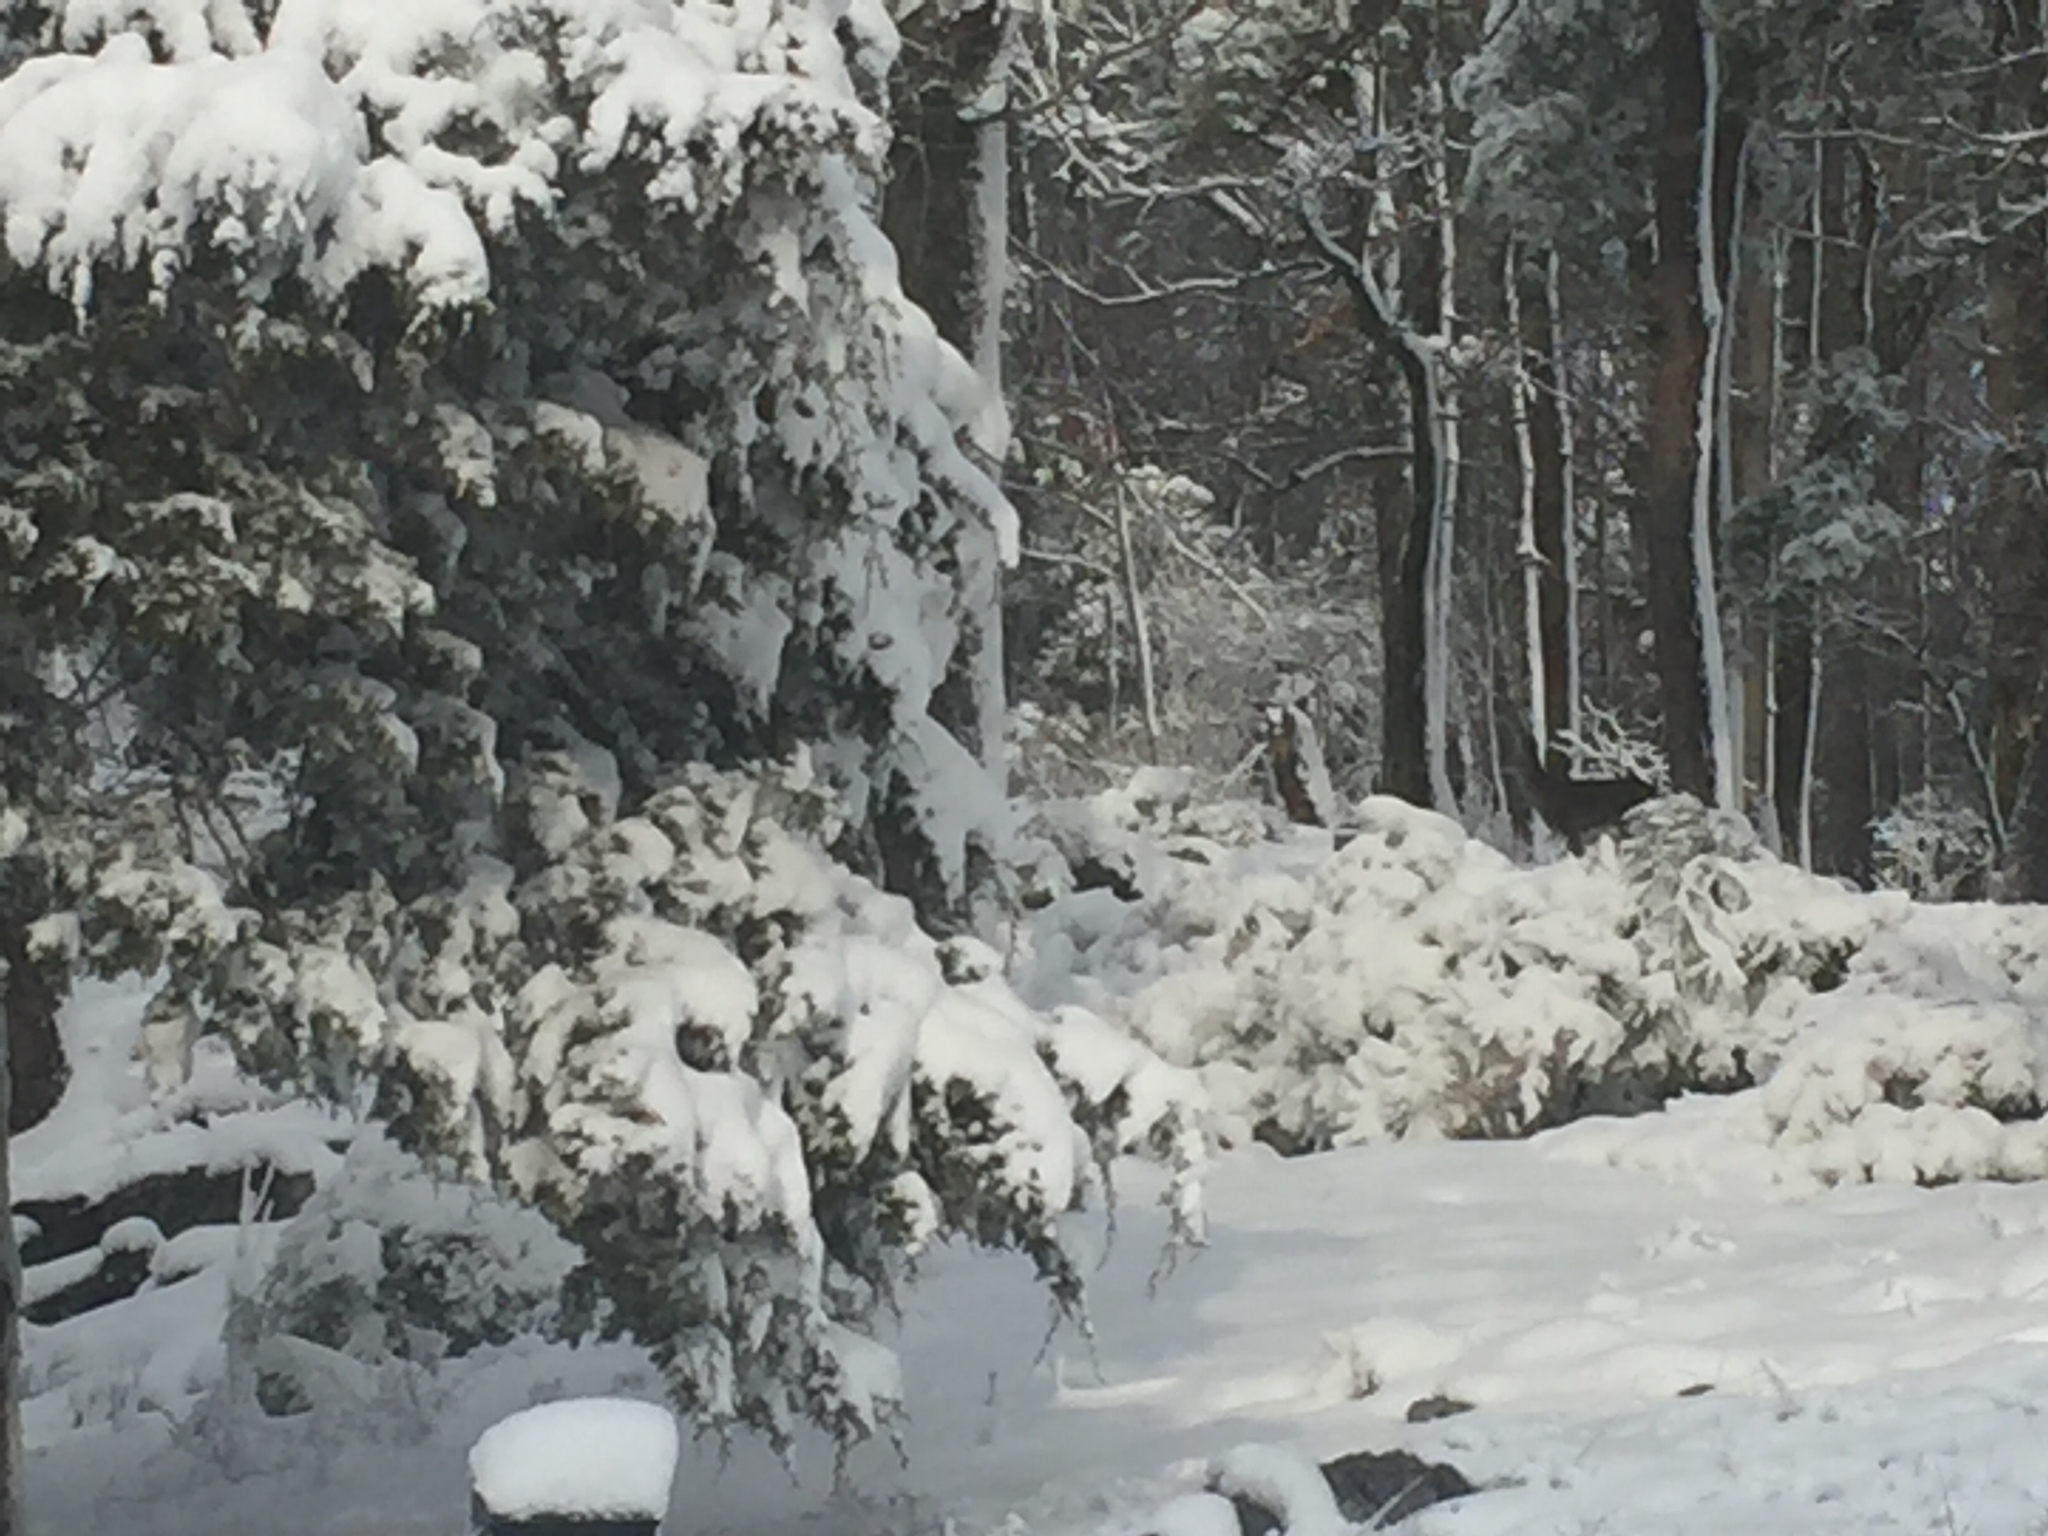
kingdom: Animalia
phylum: Chordata
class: Mammalia
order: Artiodactyla
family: Cervidae
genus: Odocoileus
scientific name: Odocoileus virginianus
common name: White-tailed deer
